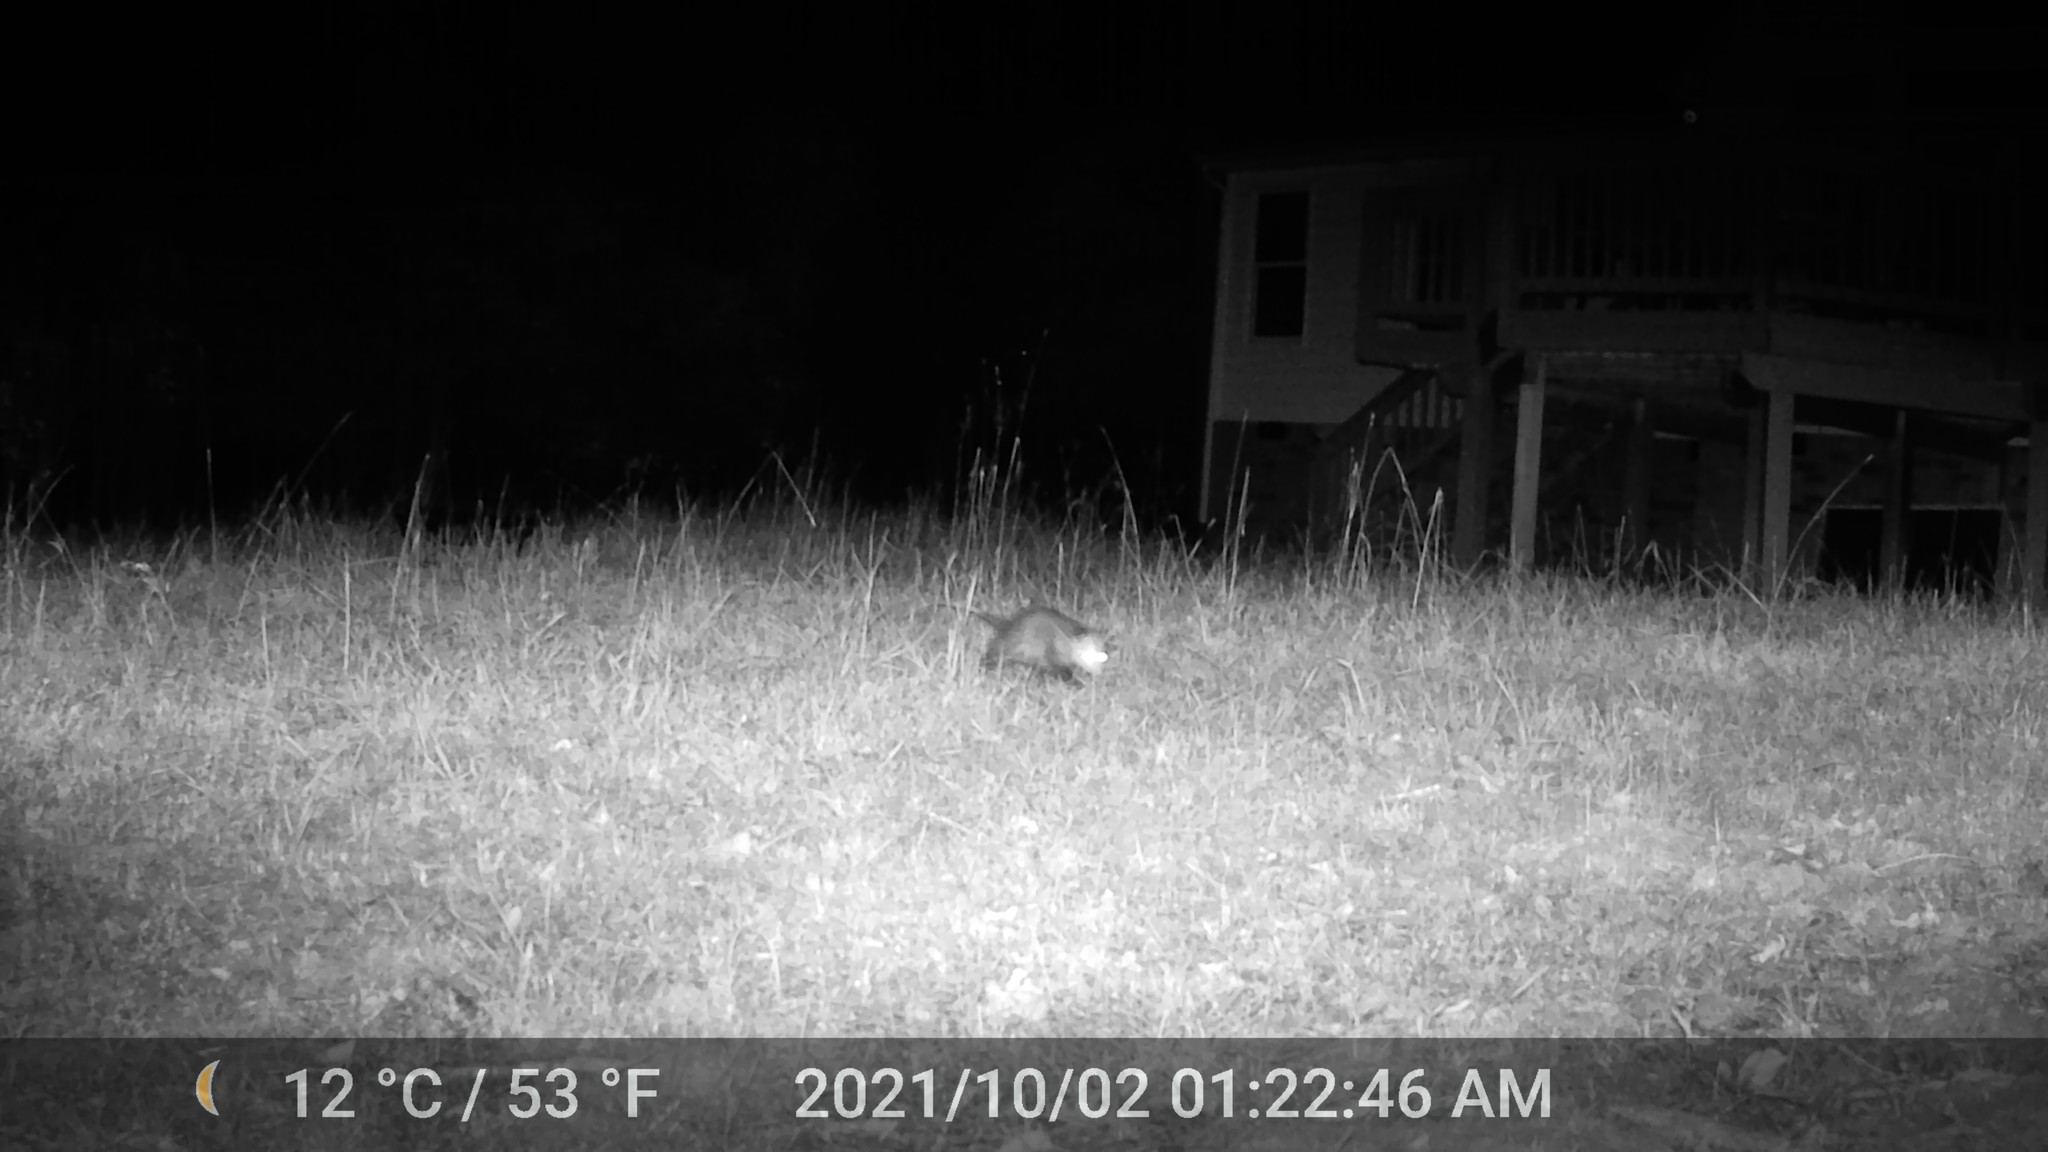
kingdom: Animalia
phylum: Chordata
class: Mammalia
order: Didelphimorphia
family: Didelphidae
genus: Didelphis
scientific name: Didelphis virginiana
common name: Virginia opossum
